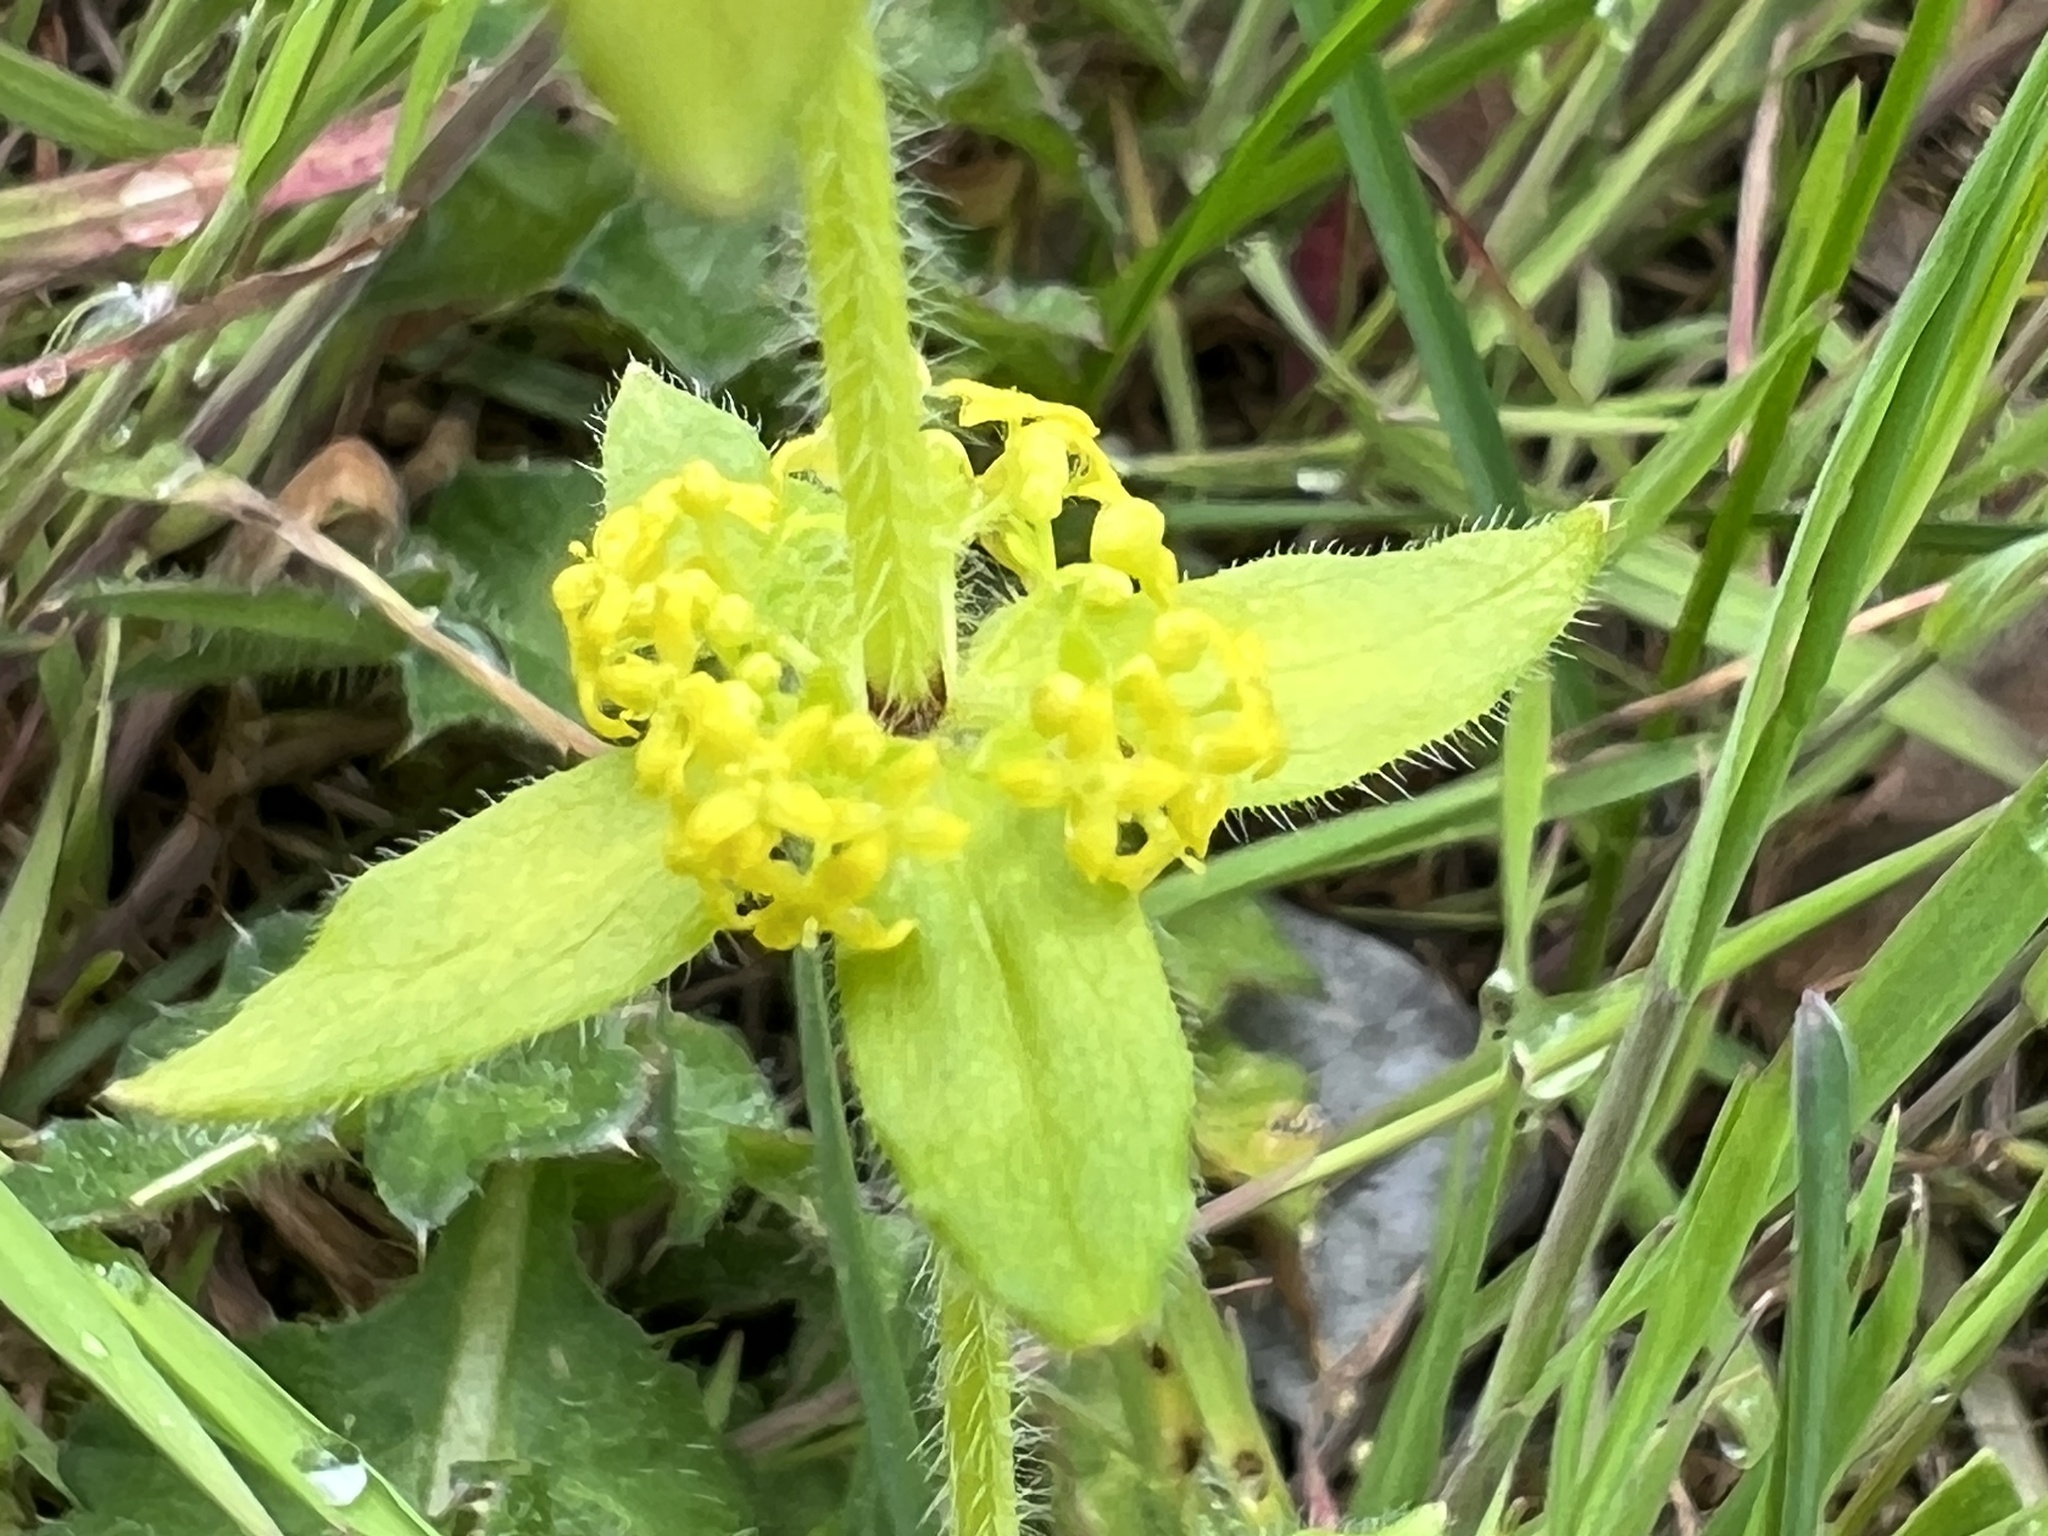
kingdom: Plantae
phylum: Tracheophyta
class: Magnoliopsida
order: Gentianales
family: Rubiaceae
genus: Cruciata
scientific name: Cruciata laevipes
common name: Crosswort
